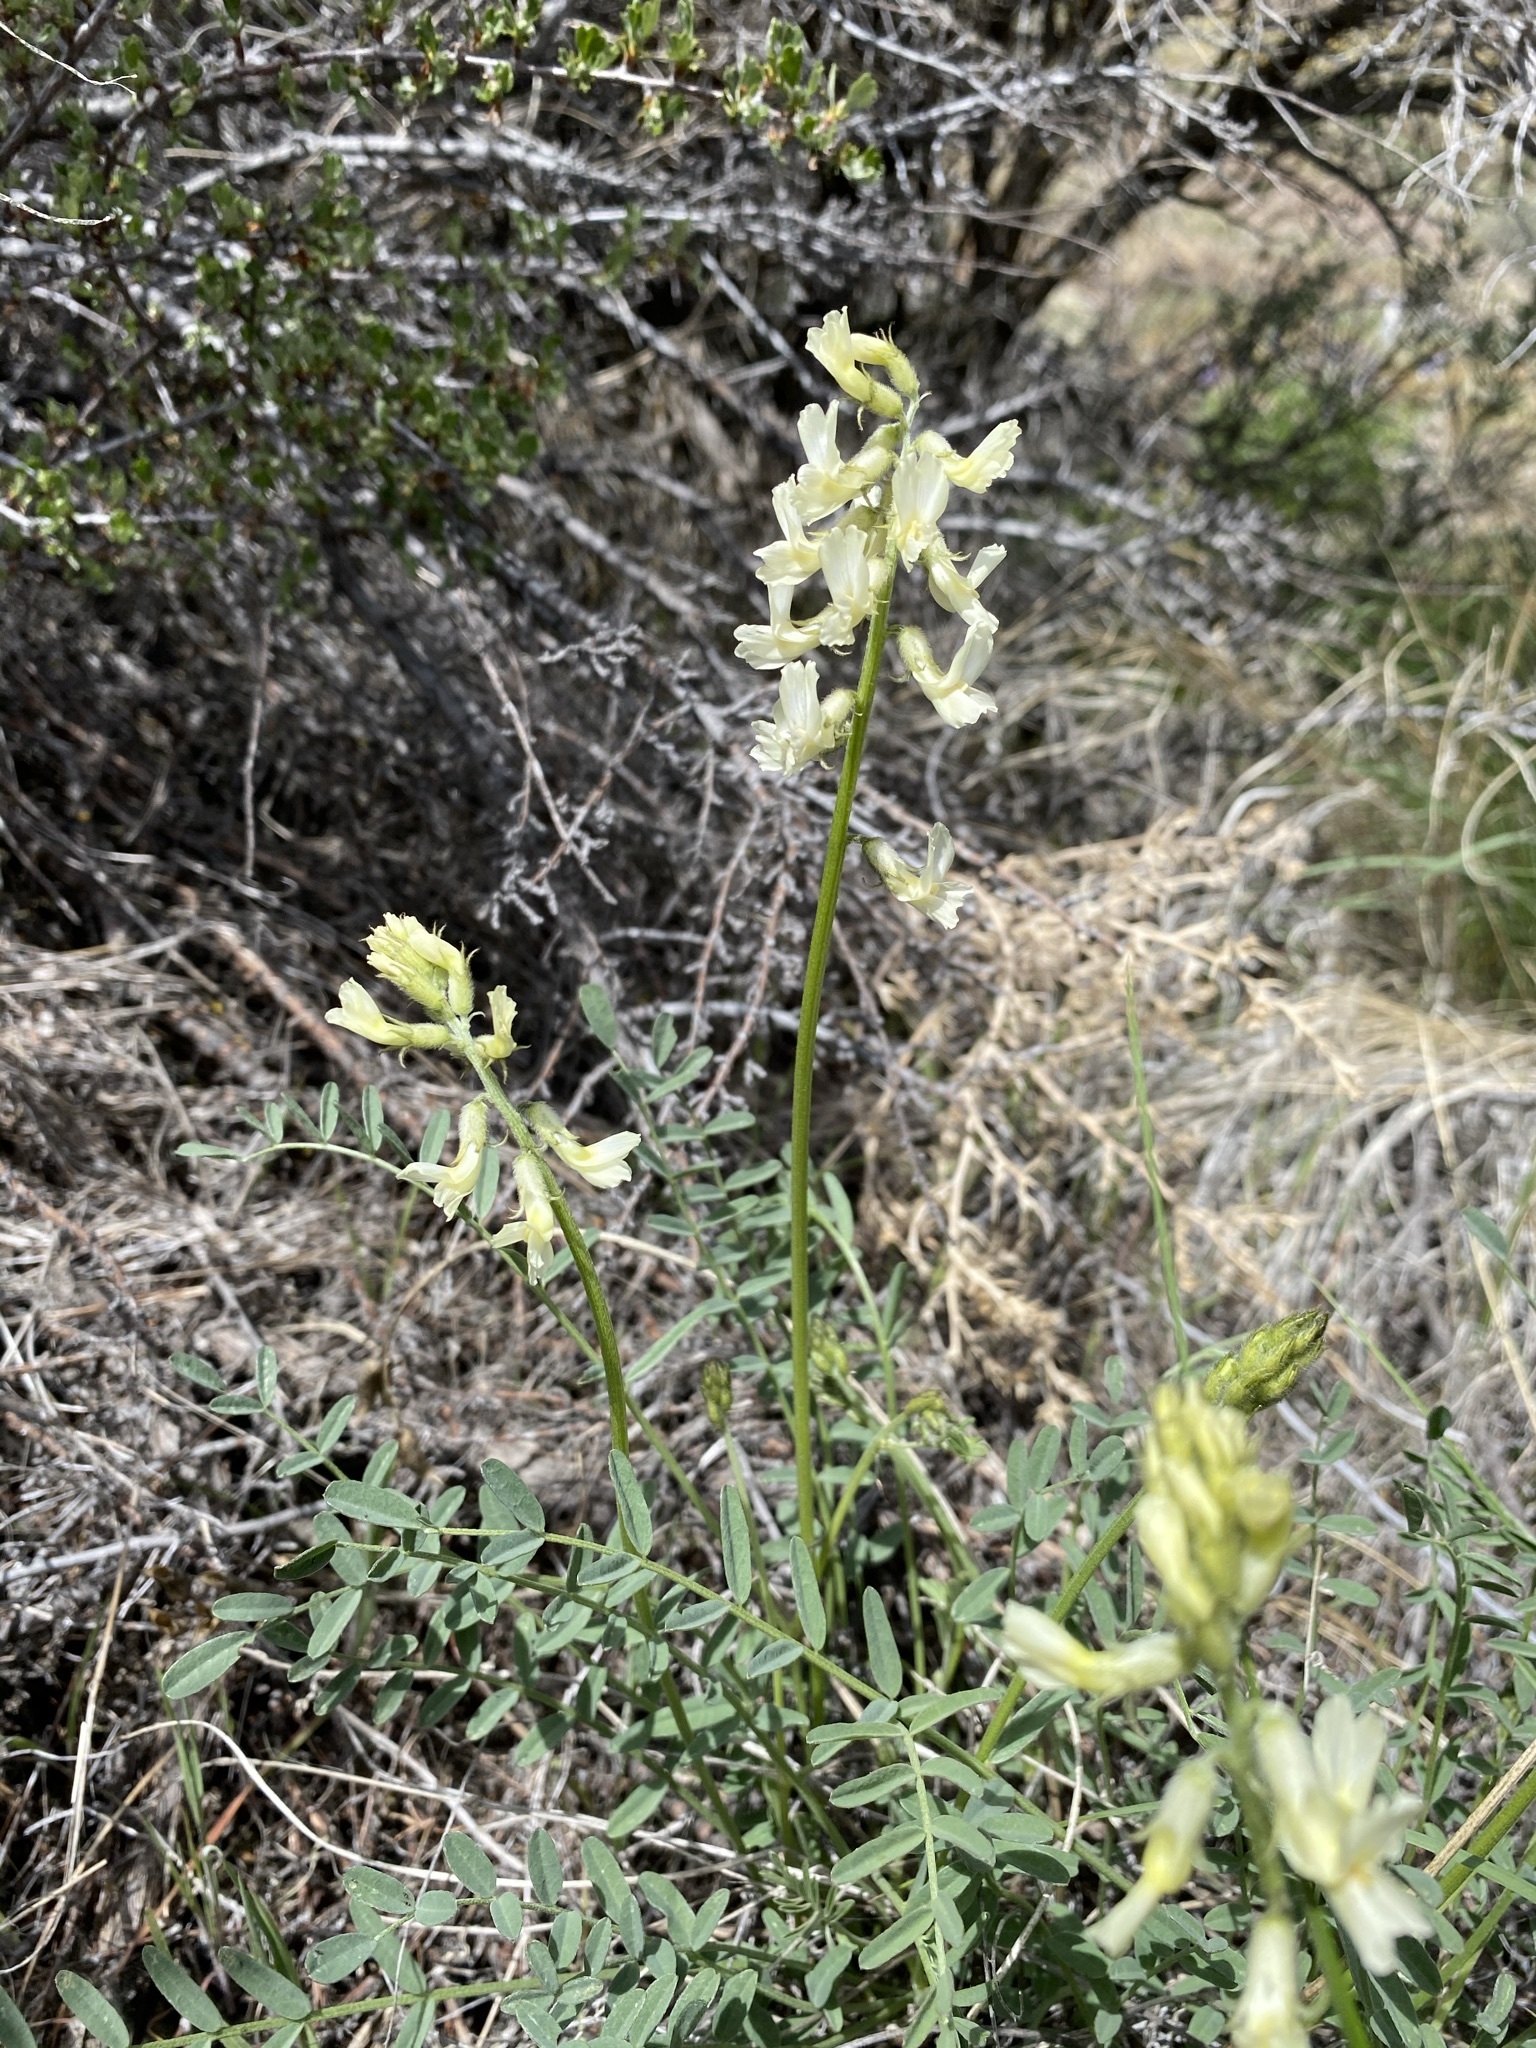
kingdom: Plantae
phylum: Tracheophyta
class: Magnoliopsida
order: Fabales
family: Fabaceae
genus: Astragalus
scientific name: Astragalus reventiformis
